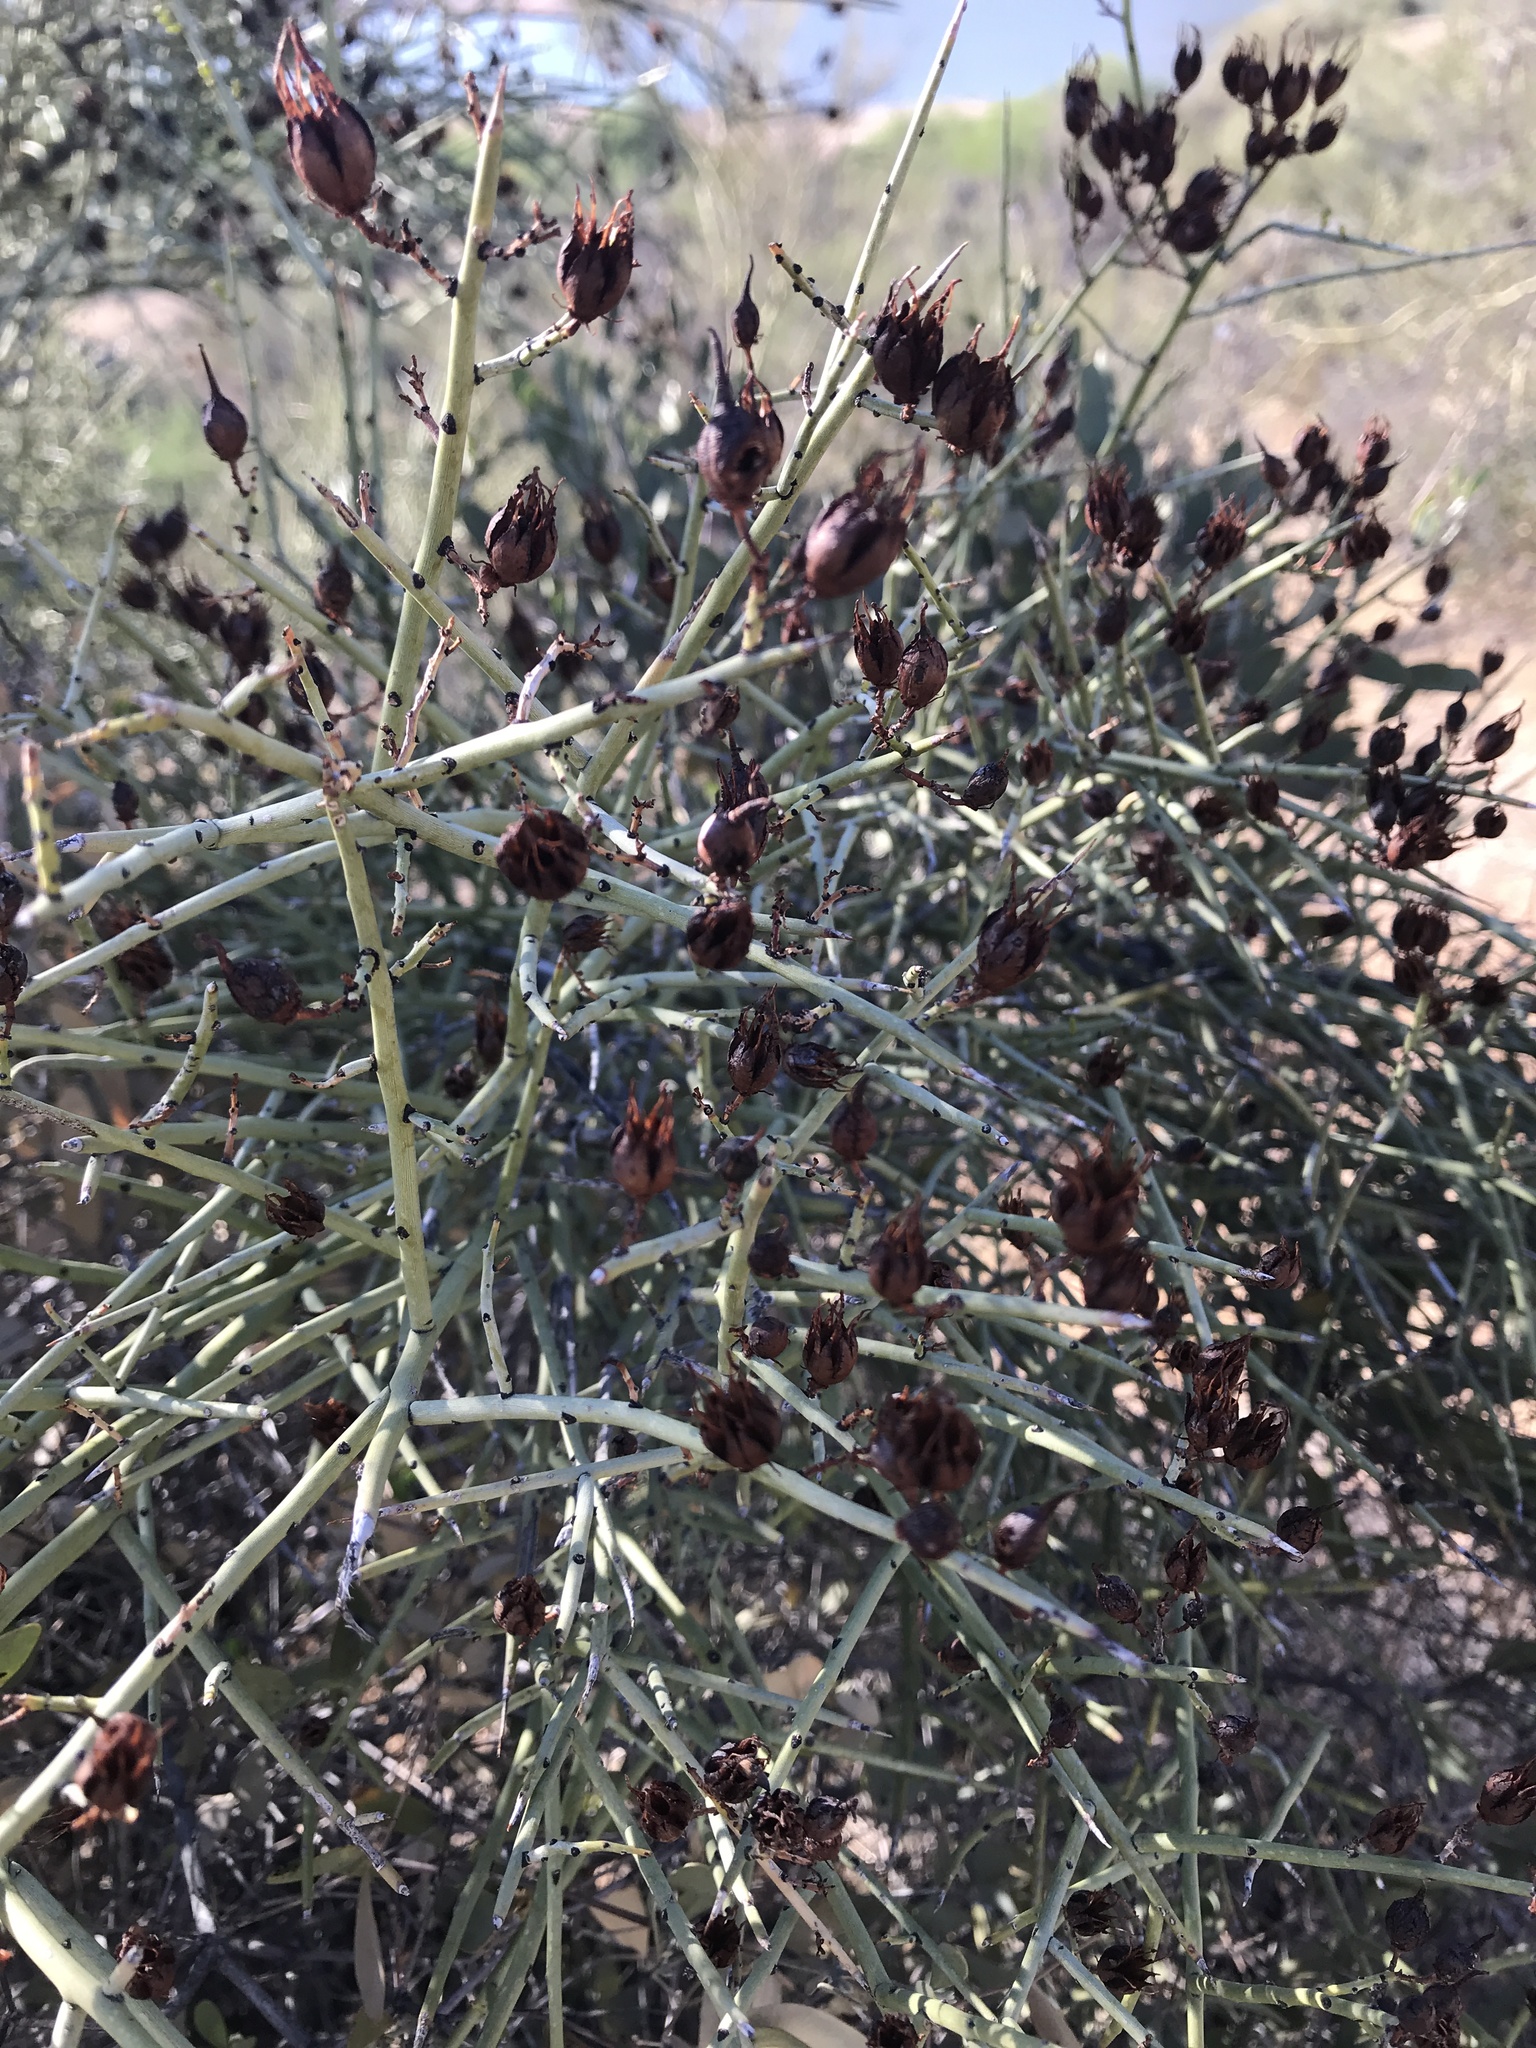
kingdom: Plantae
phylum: Tracheophyta
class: Magnoliopsida
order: Celastrales
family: Celastraceae
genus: Canotia
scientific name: Canotia holacantha
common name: Crucifixion thorns
